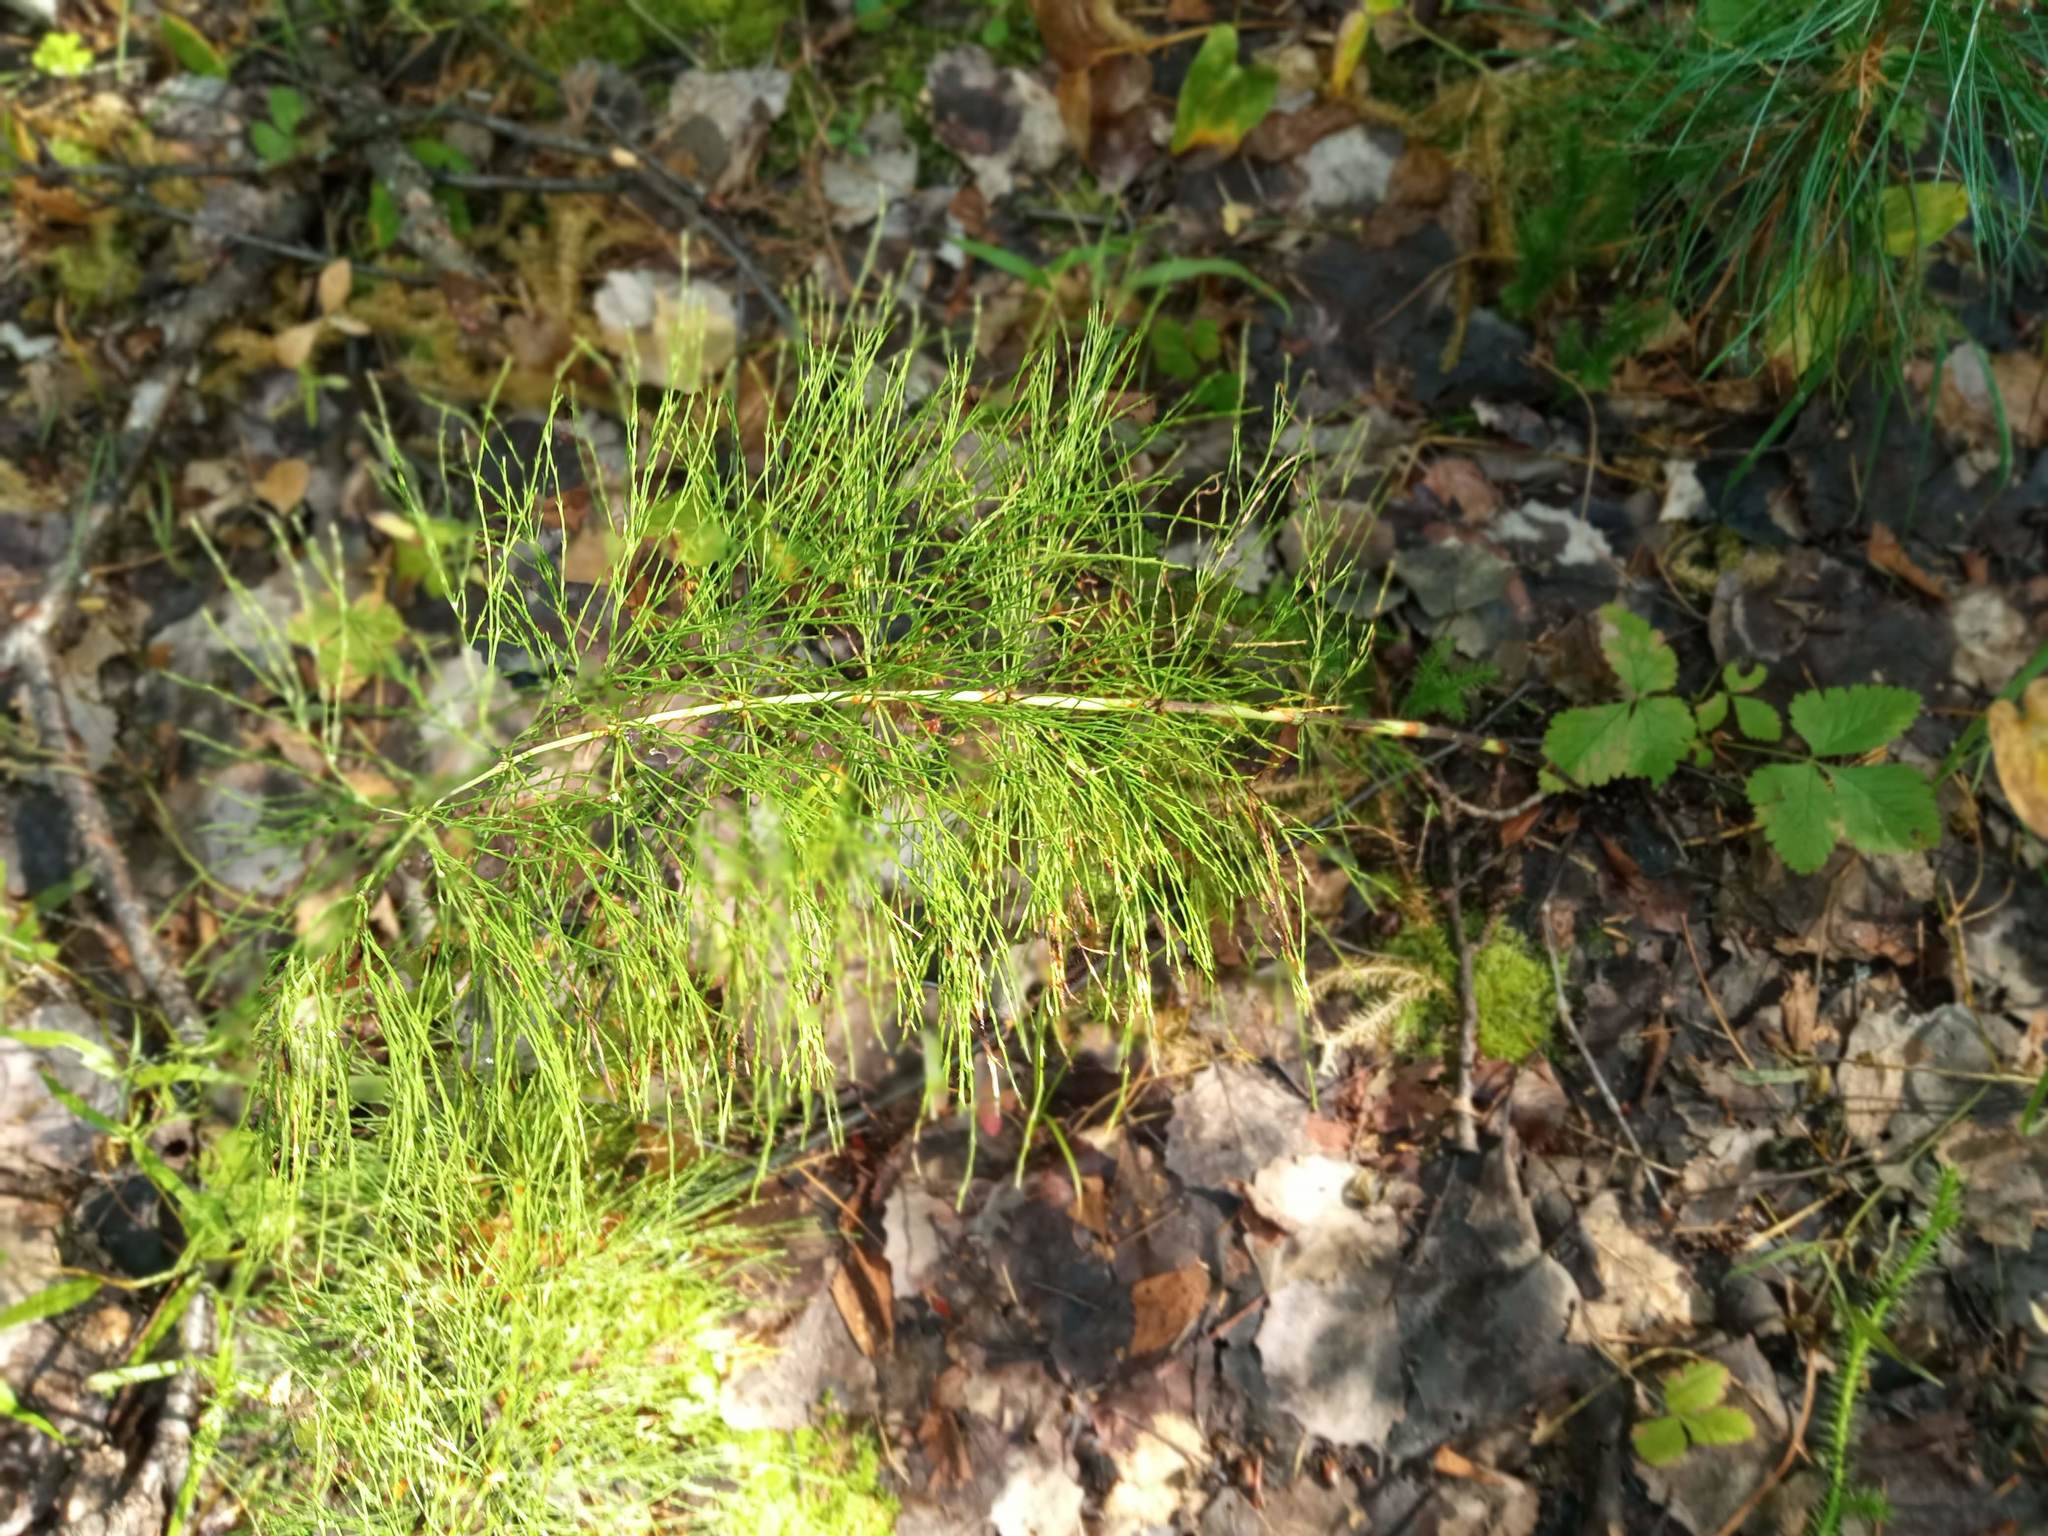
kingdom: Plantae
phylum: Tracheophyta
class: Polypodiopsida
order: Equisetales
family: Equisetaceae
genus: Equisetum
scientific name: Equisetum sylvaticum
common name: Wood horsetail
